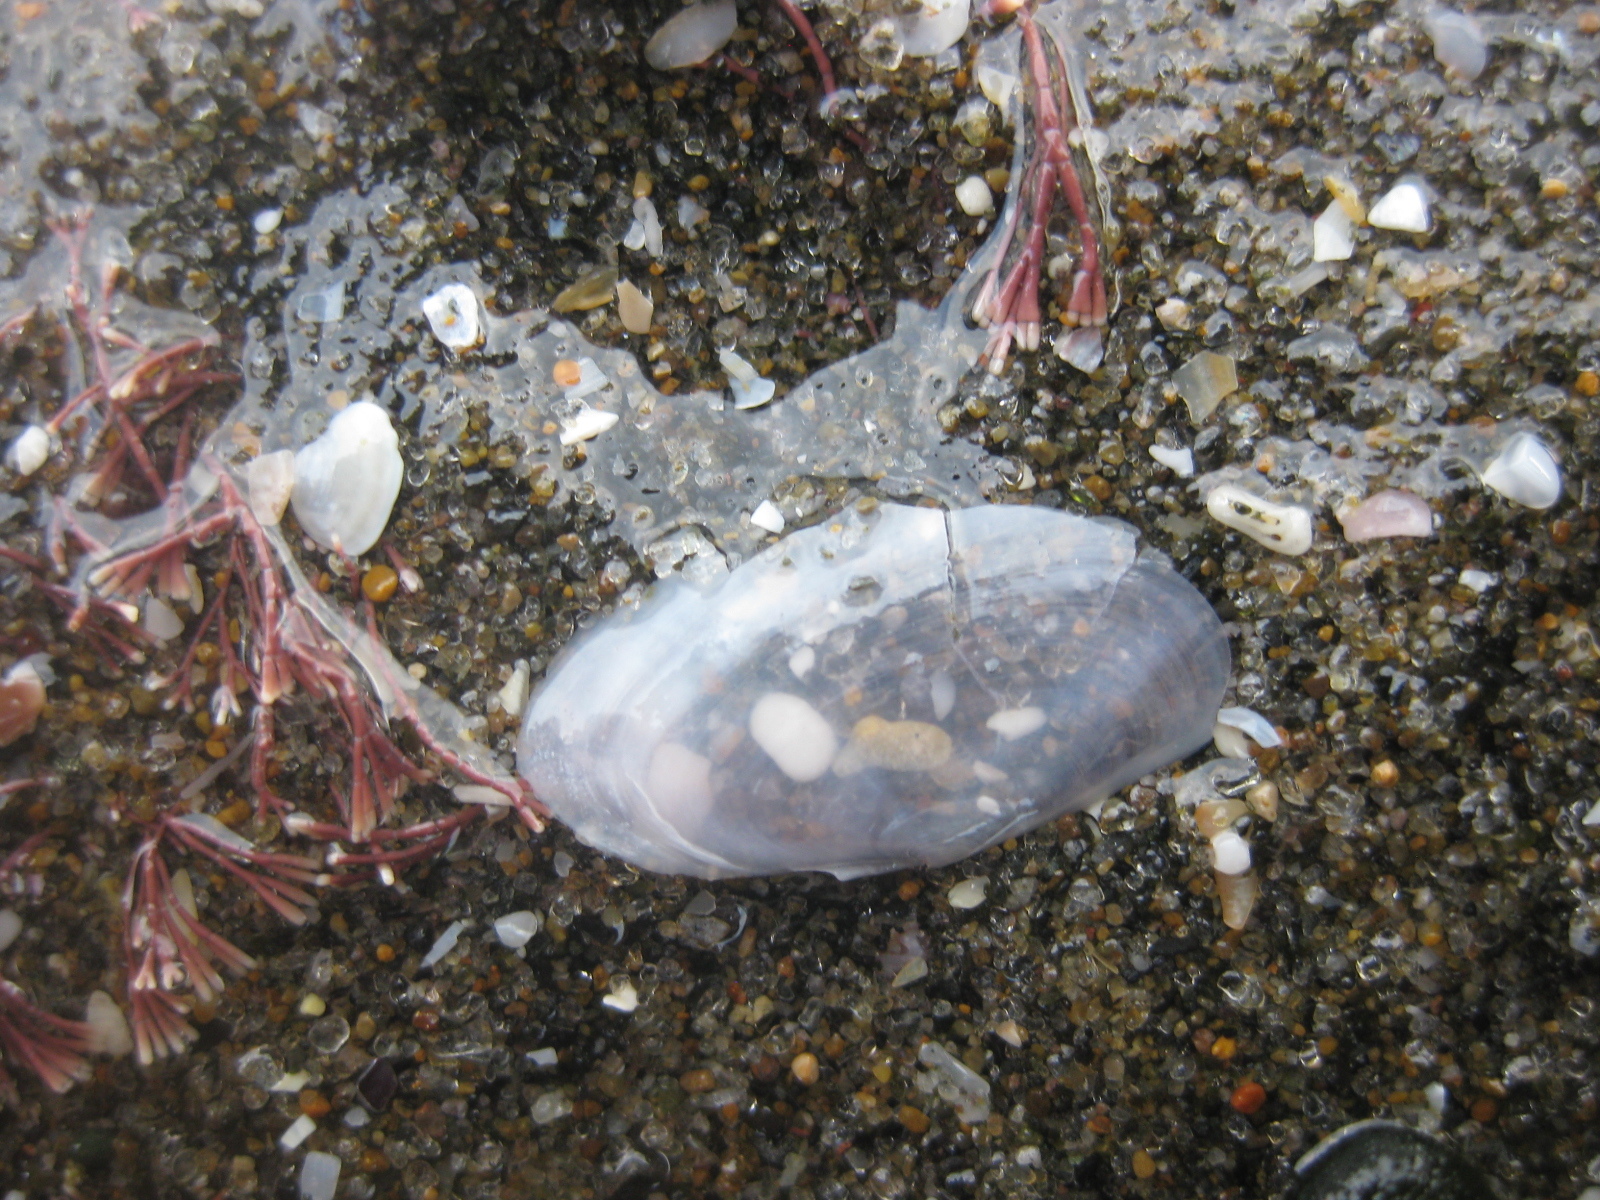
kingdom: Animalia
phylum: Mollusca
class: Bivalvia
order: Cardiida
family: Psammobiidae
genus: Hiatula
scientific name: Hiatula nitida
